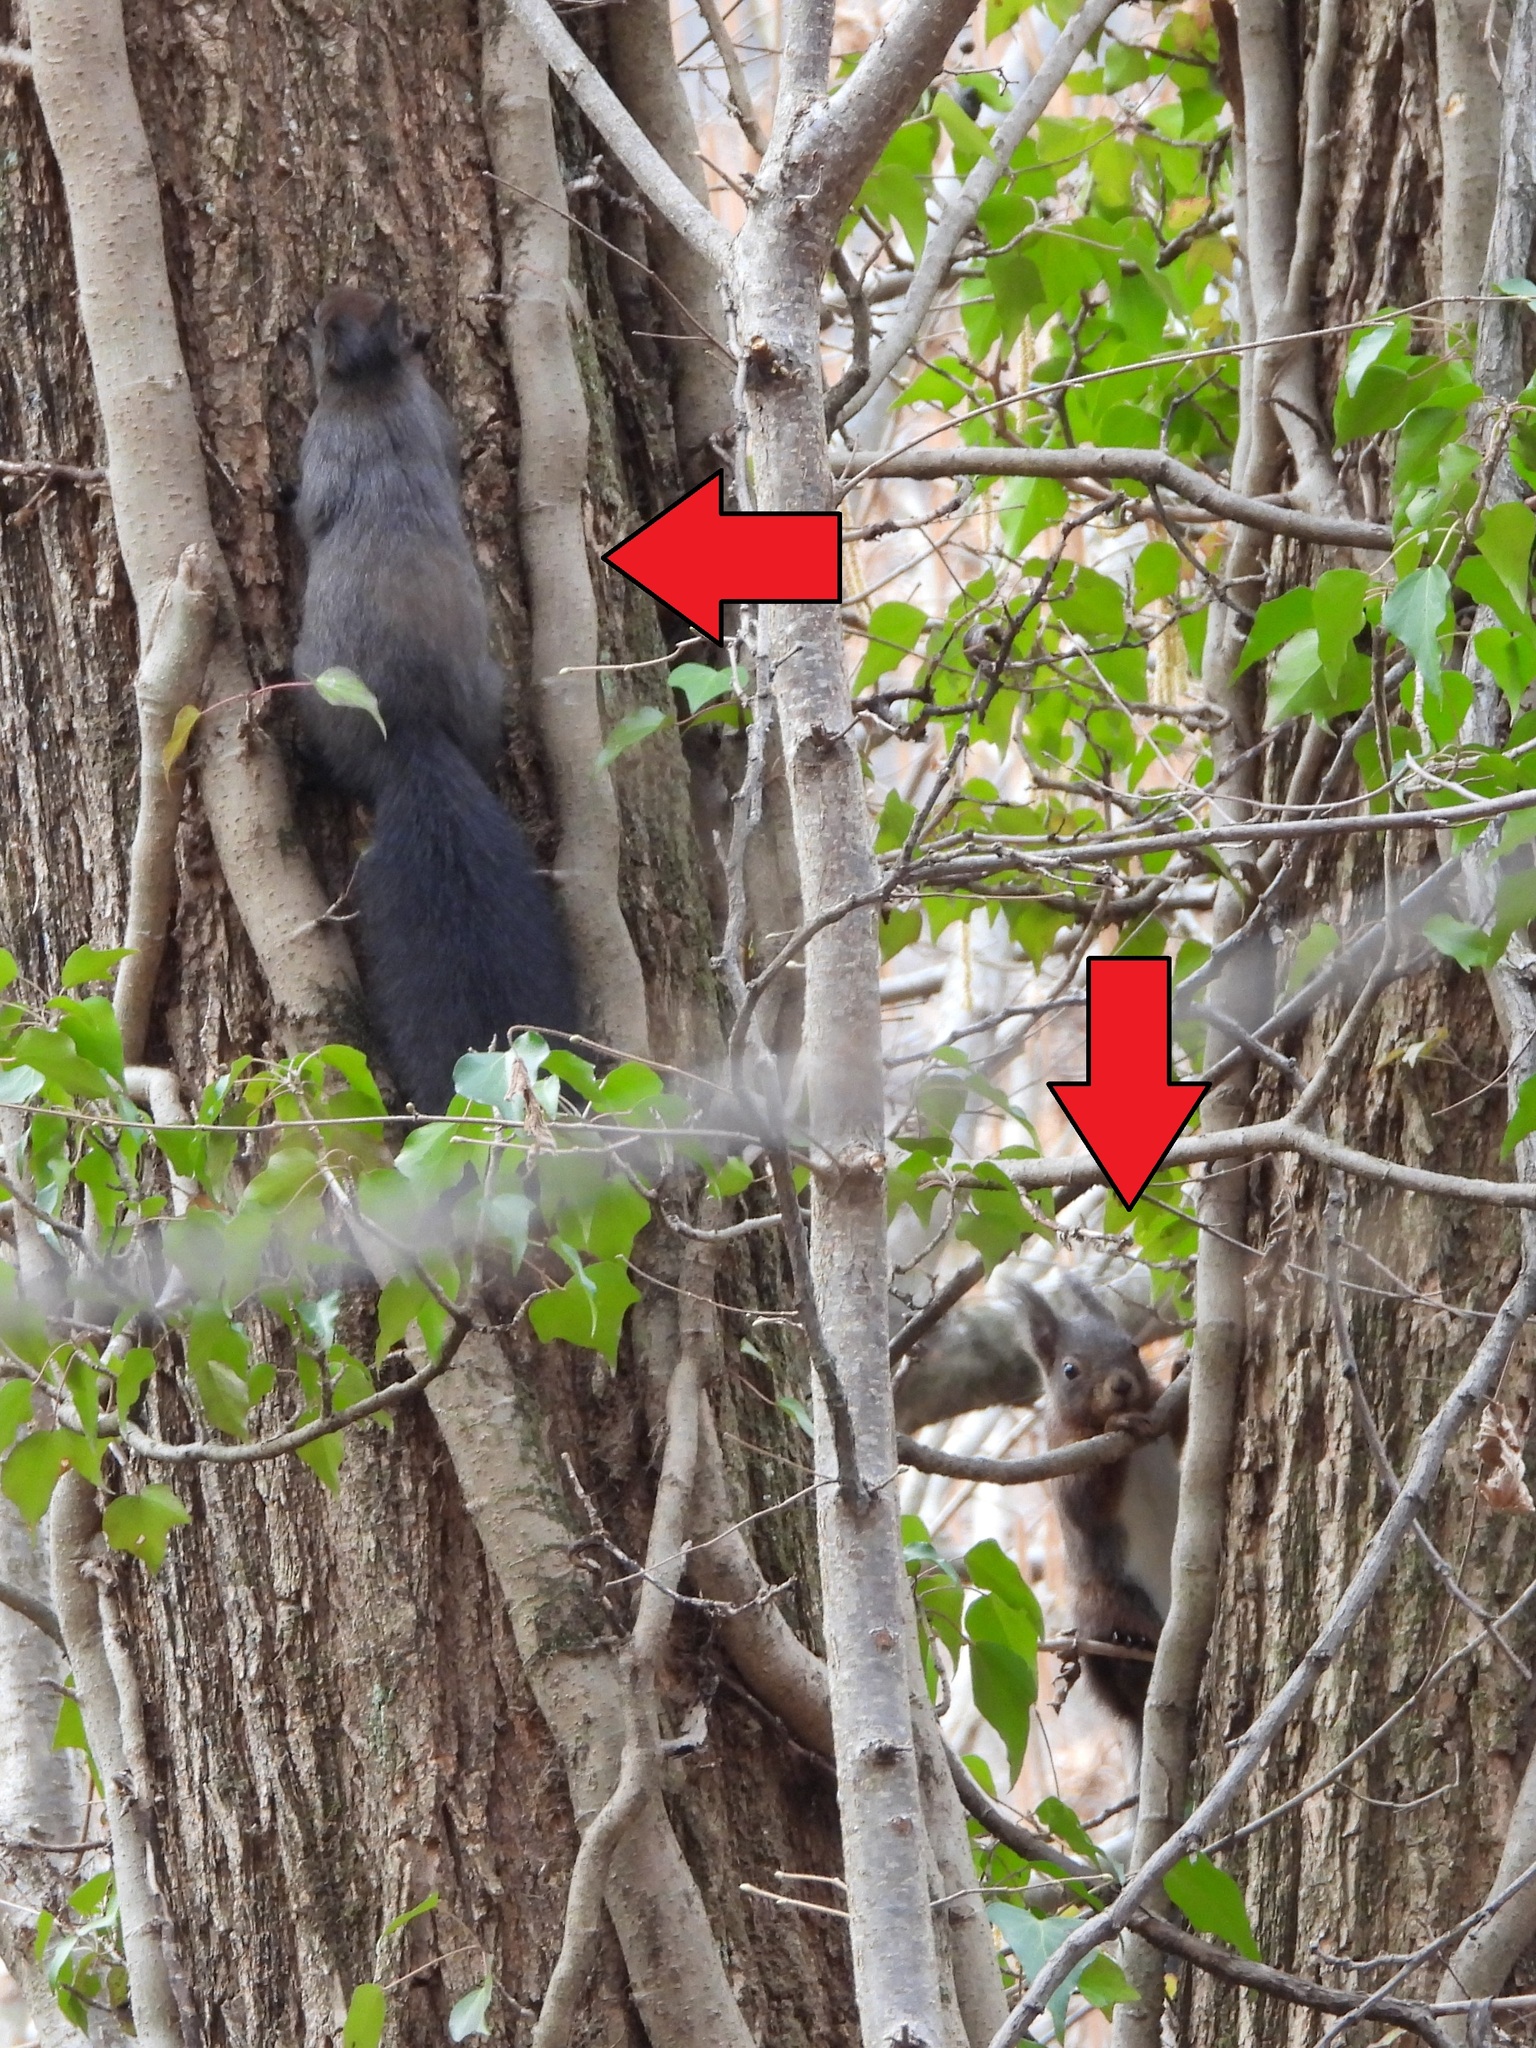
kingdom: Animalia
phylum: Chordata
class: Mammalia
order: Rodentia
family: Sciuridae
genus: Sciurus
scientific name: Sciurus vulgaris
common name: Eurasian red squirrel
